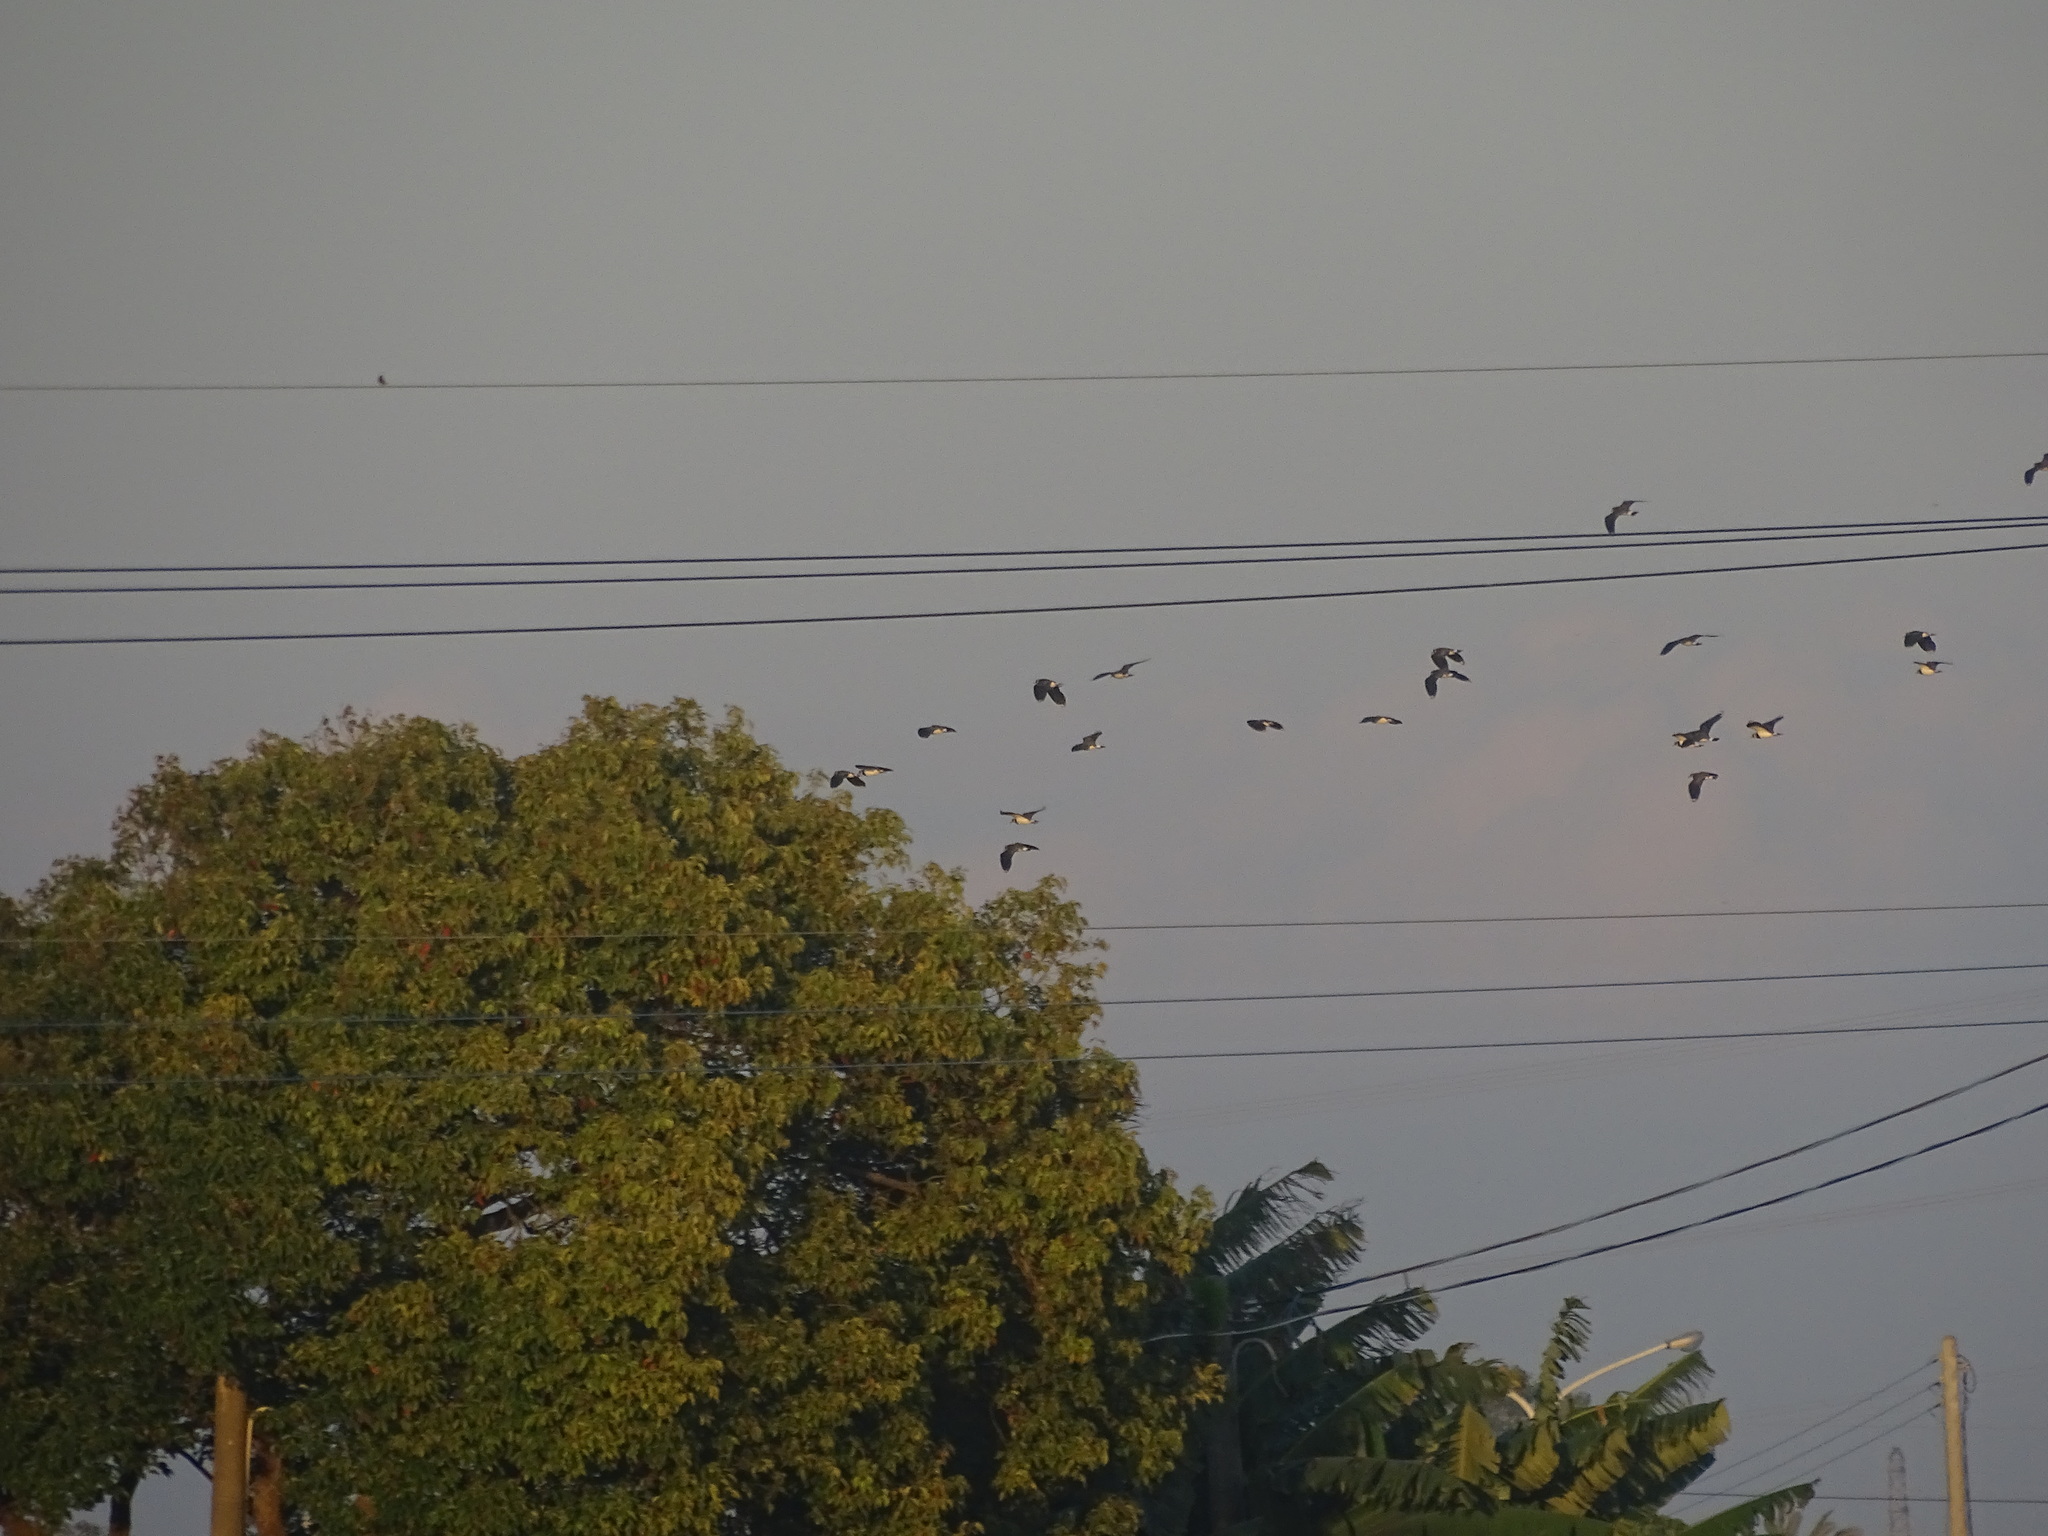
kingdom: Animalia
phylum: Chordata
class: Aves
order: Charadriiformes
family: Charadriidae
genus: Vanellus
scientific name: Vanellus vanellus
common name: Northern lapwing
